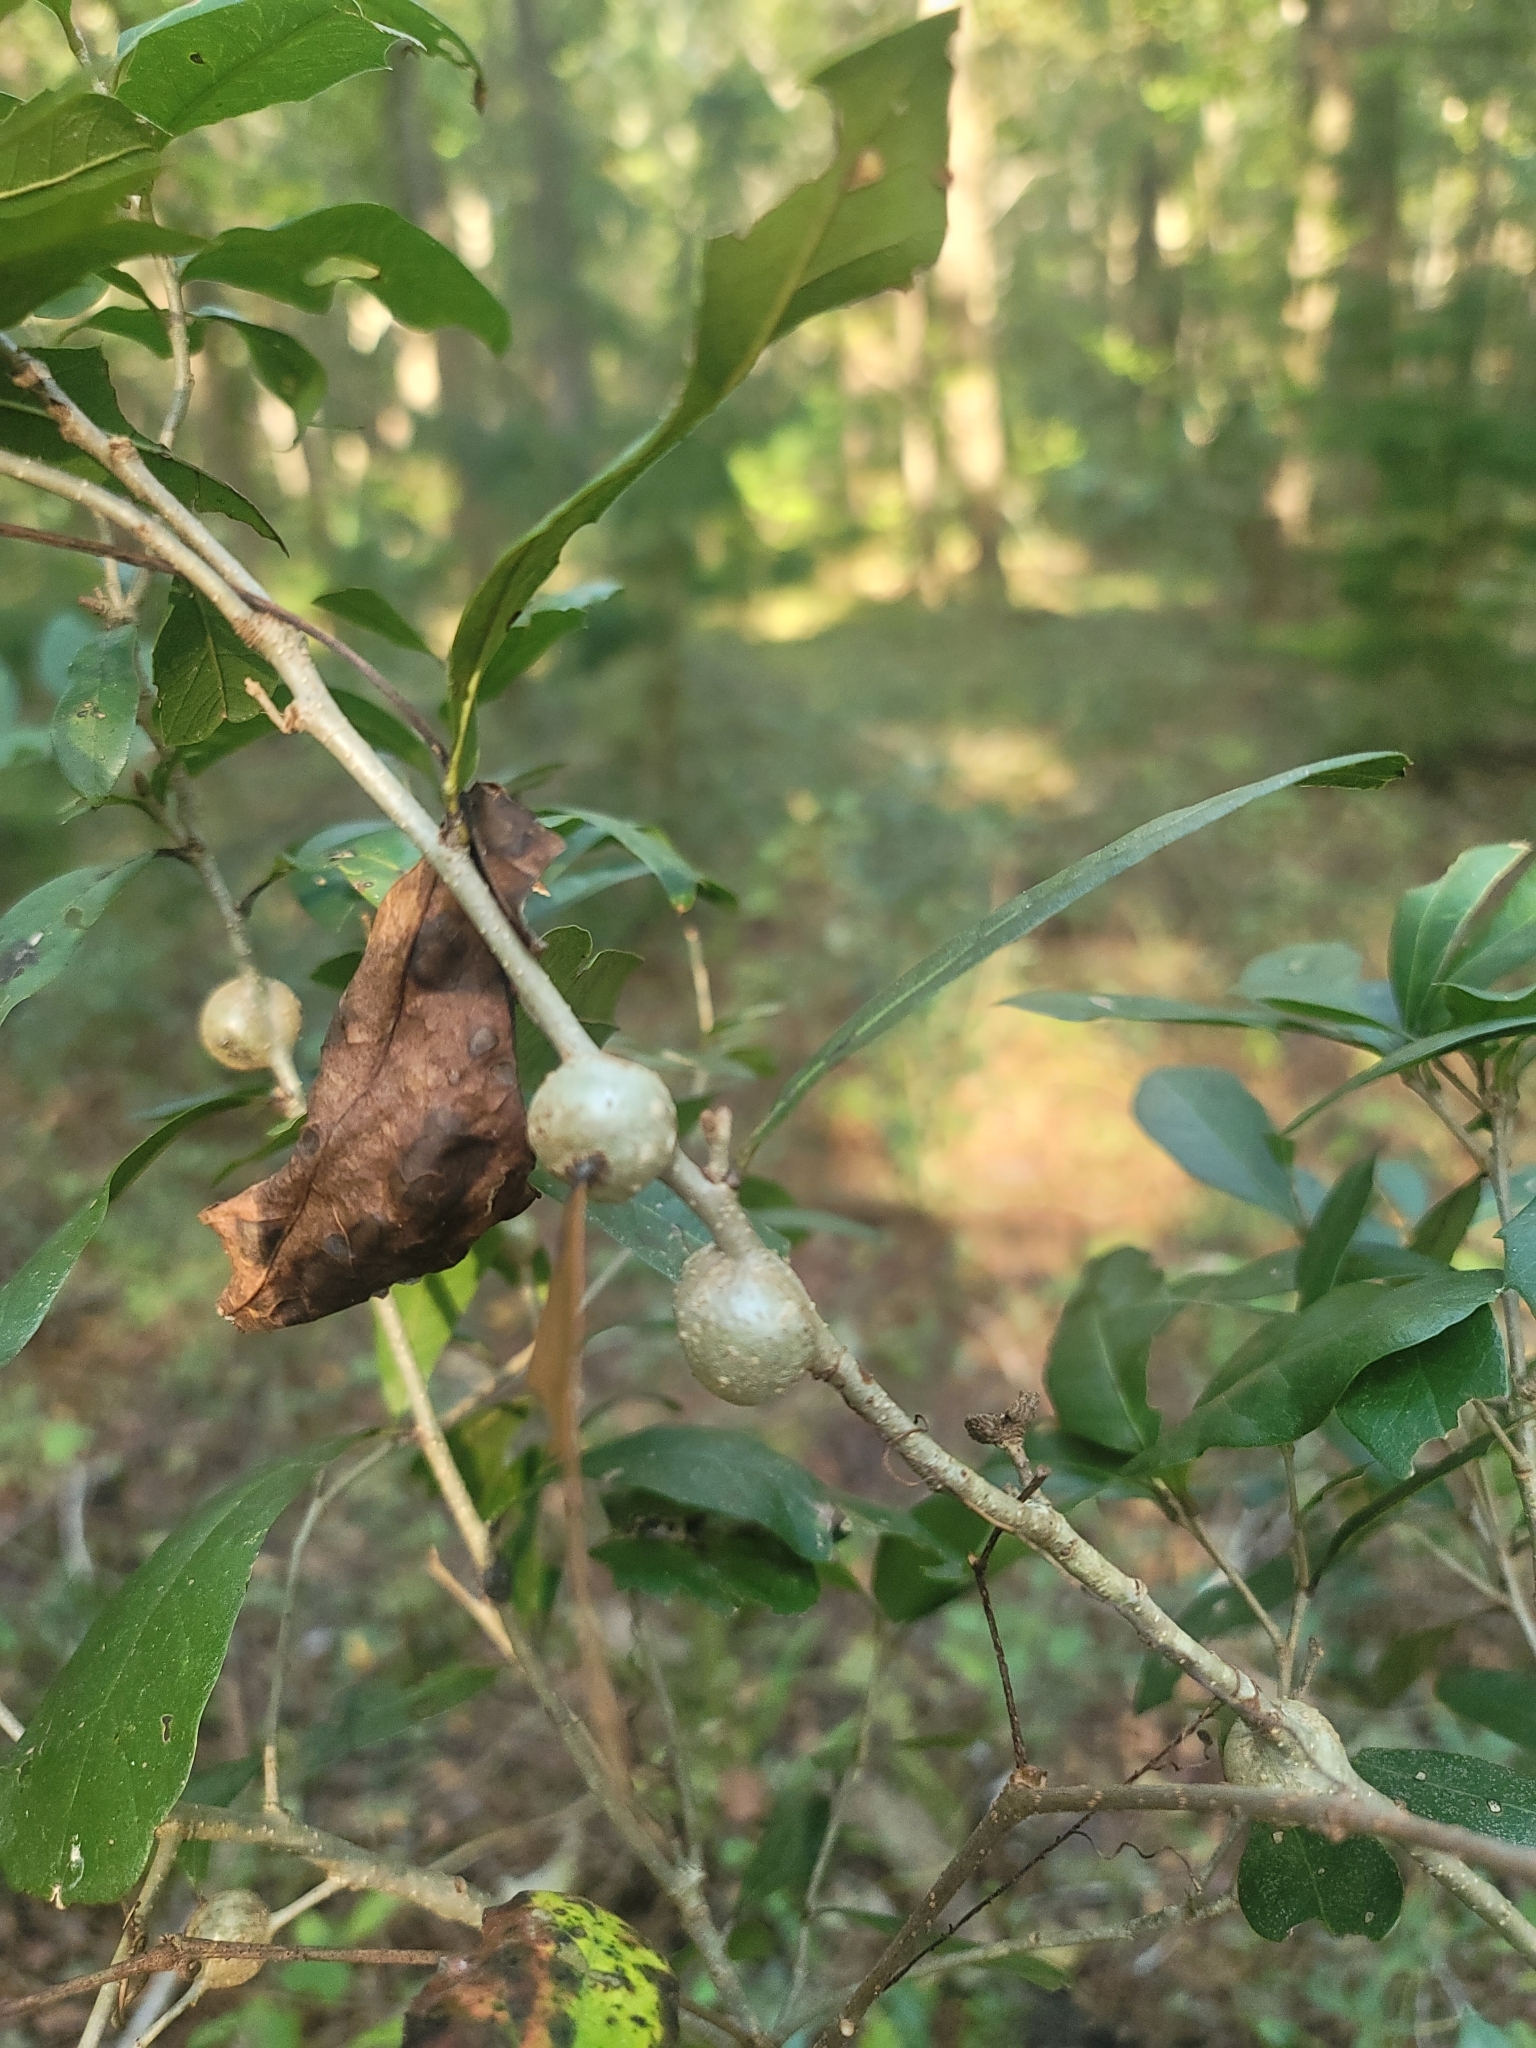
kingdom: Animalia
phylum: Arthropoda
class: Insecta
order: Hymenoptera
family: Cynipidae
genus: Callirhytis
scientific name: Callirhytis
